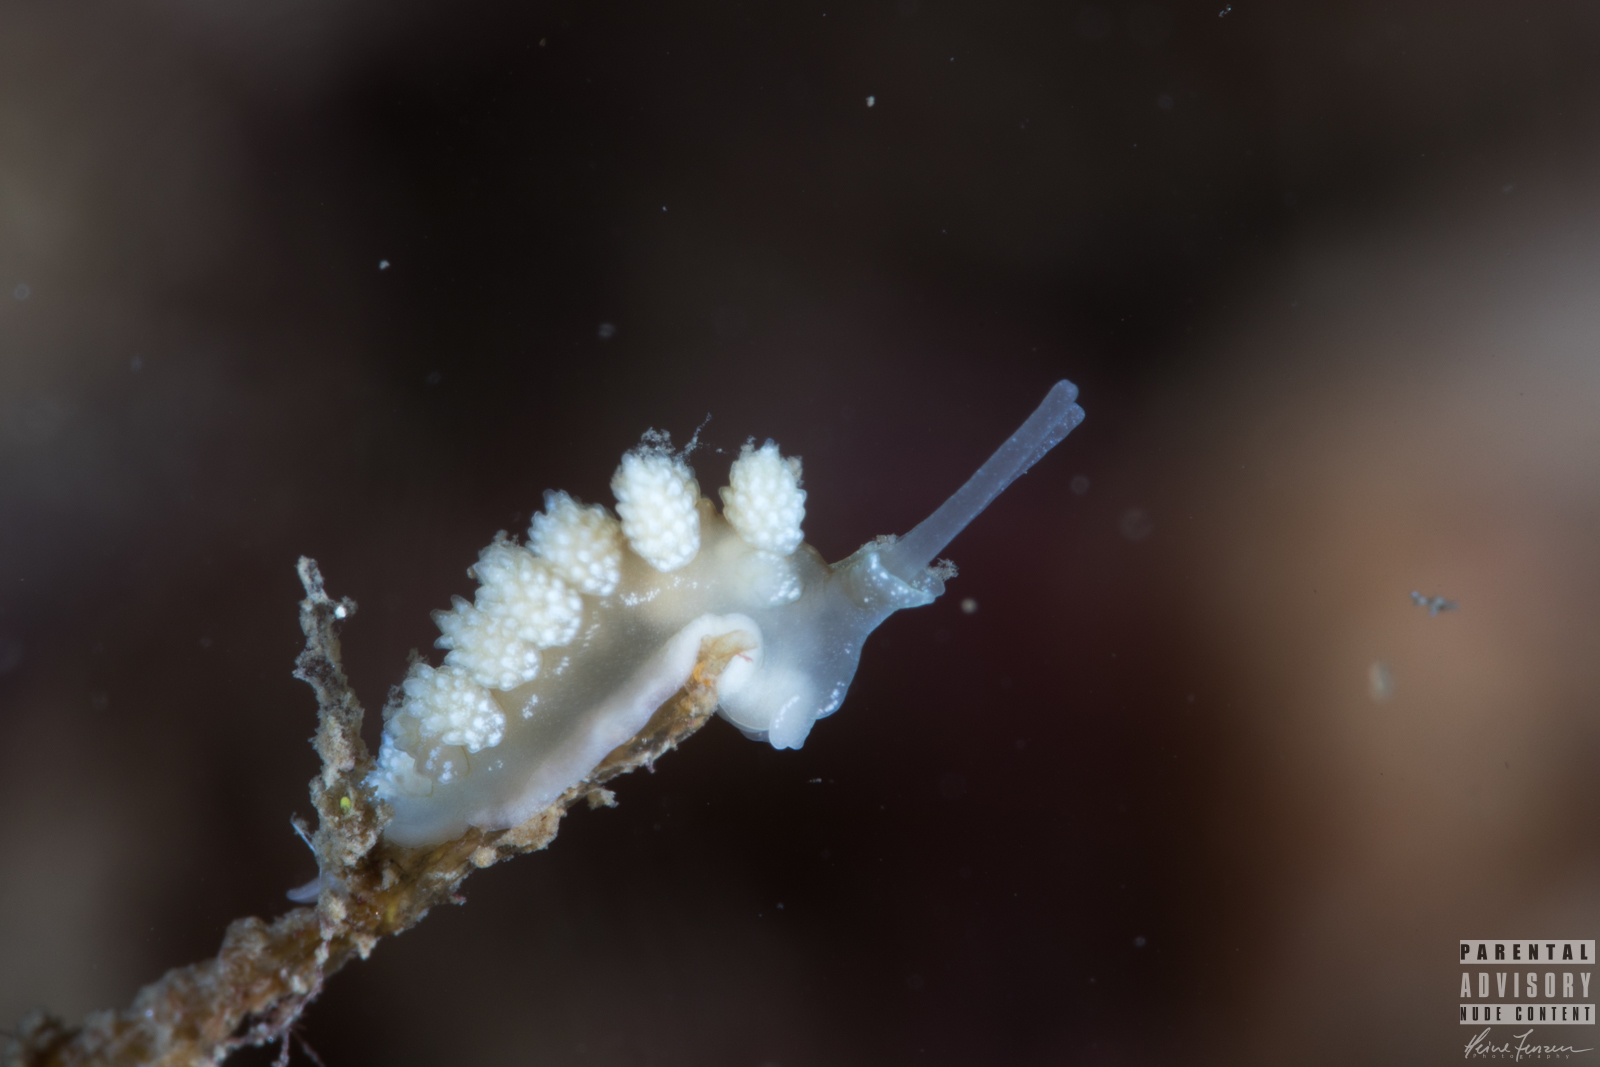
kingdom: Animalia
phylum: Mollusca
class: Gastropoda
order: Nudibranchia
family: Dotidae
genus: Doto
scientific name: Doto fragilis
